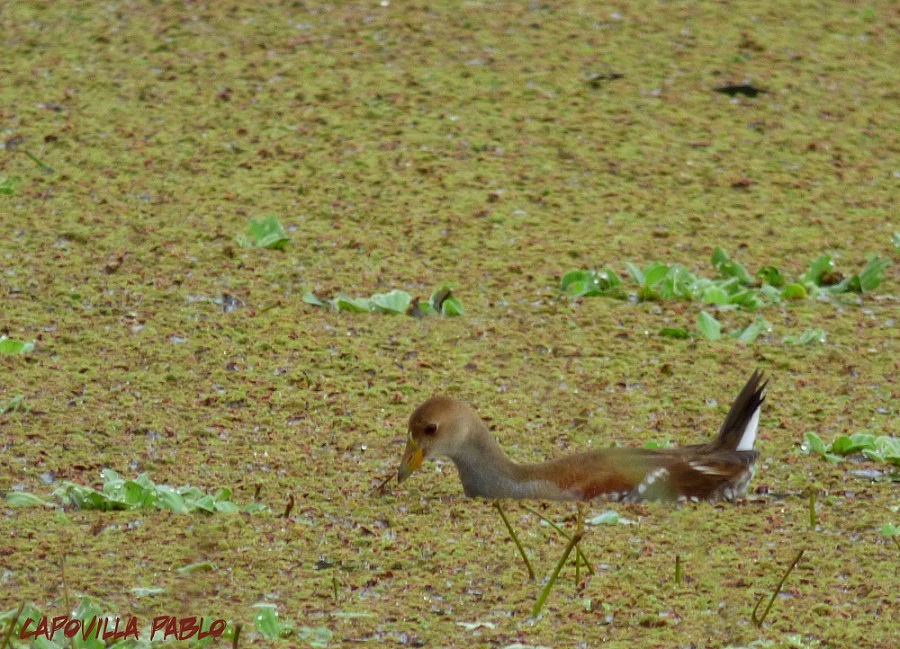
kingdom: Animalia
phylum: Chordata
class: Aves
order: Gruiformes
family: Rallidae
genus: Gallinula
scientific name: Gallinula melanops
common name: Spot-flanked gallinule
